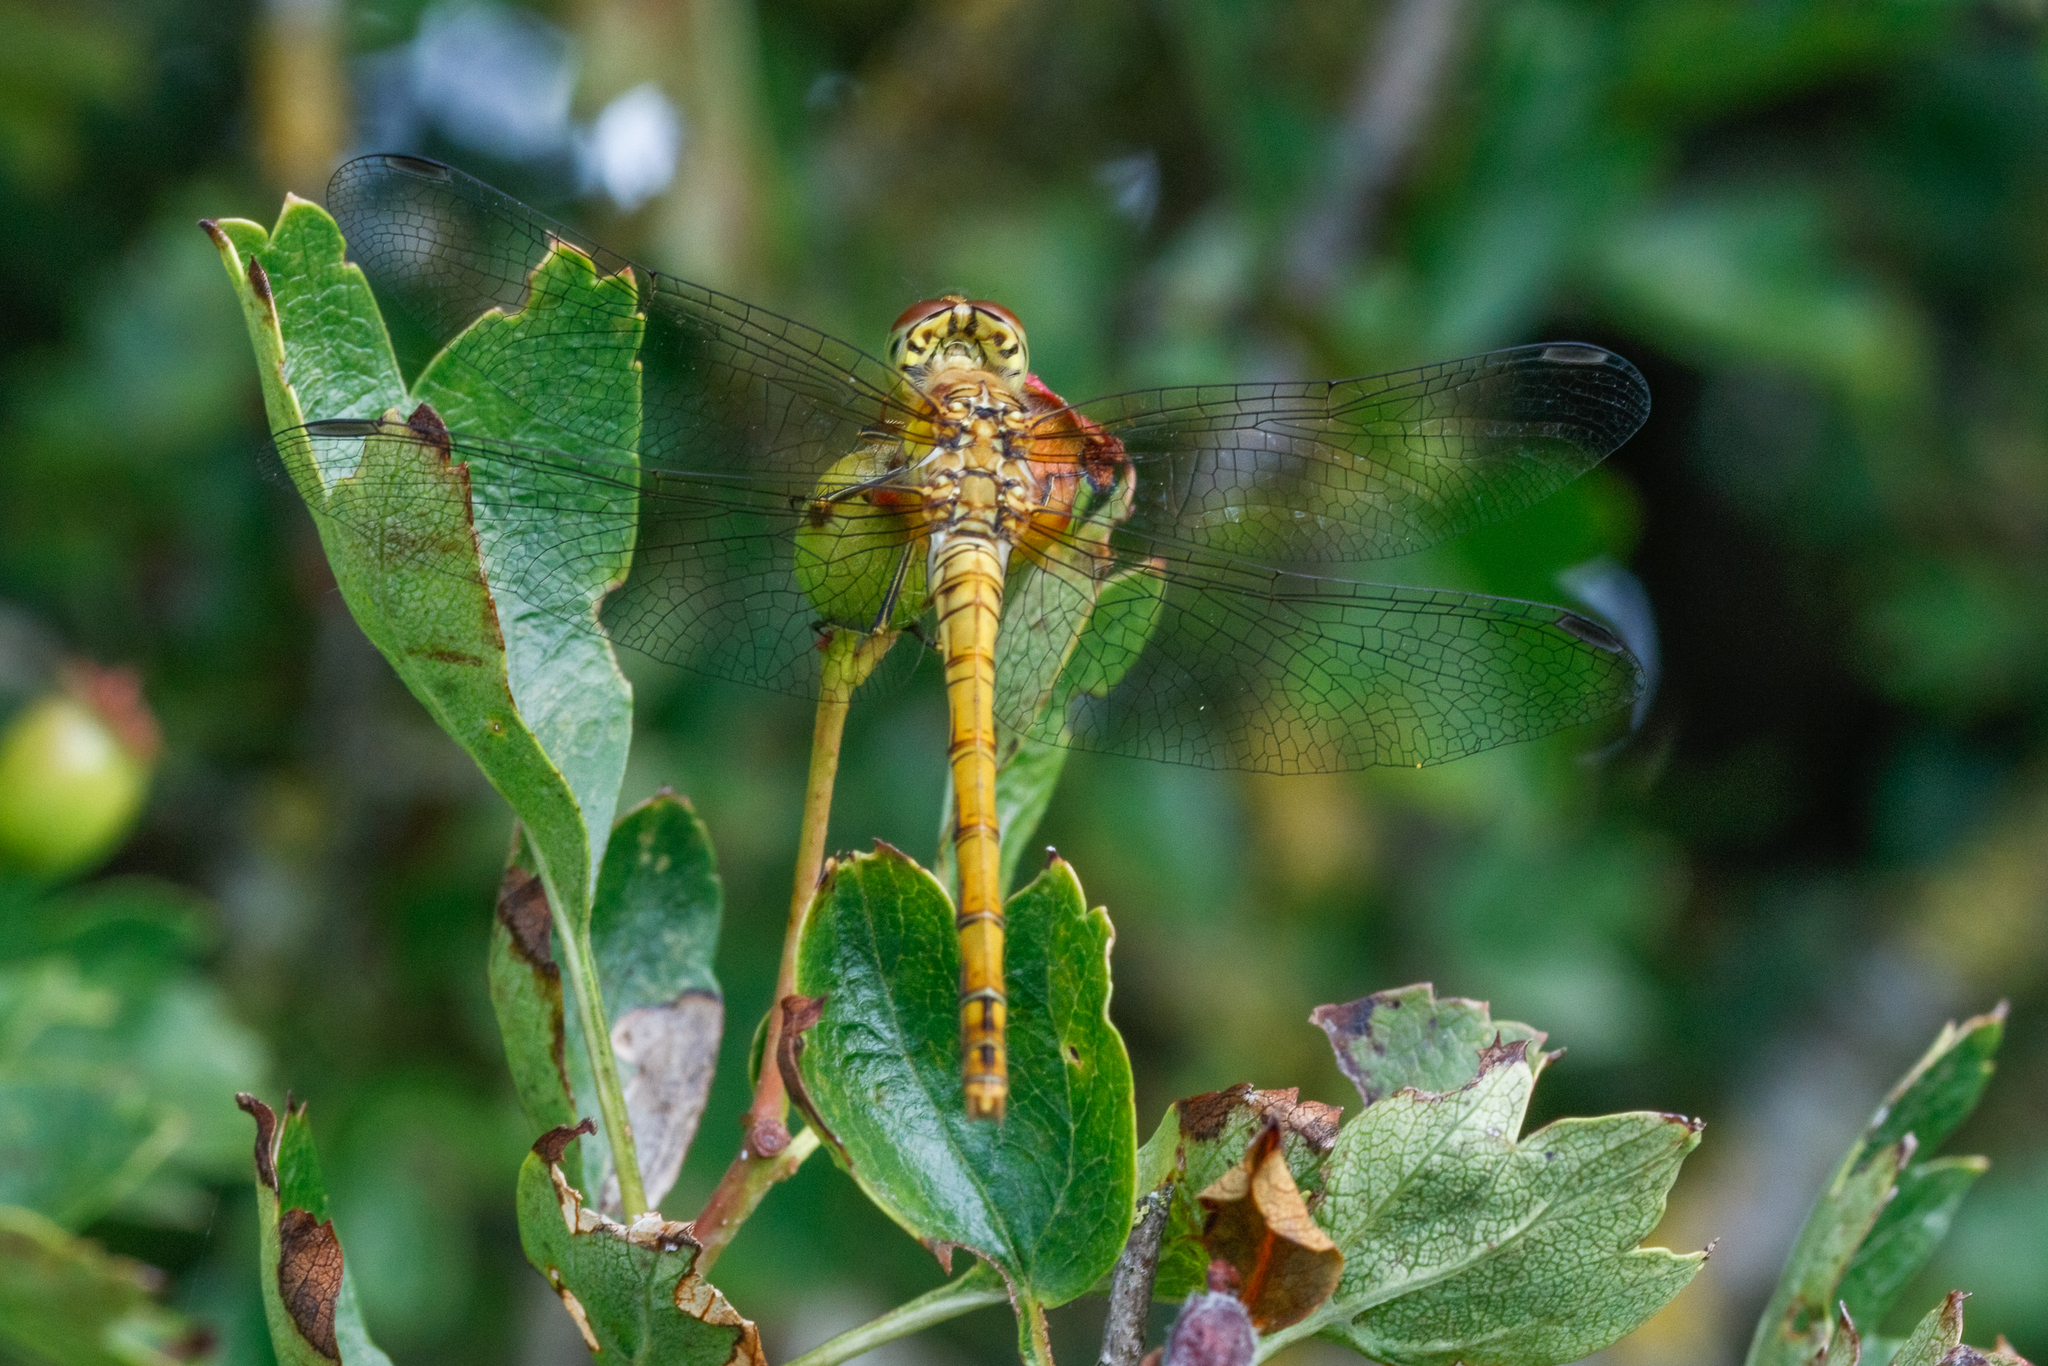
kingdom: Animalia
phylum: Arthropoda
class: Insecta
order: Odonata
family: Libellulidae
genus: Sympetrum
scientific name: Sympetrum striolatum
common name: Common darter
